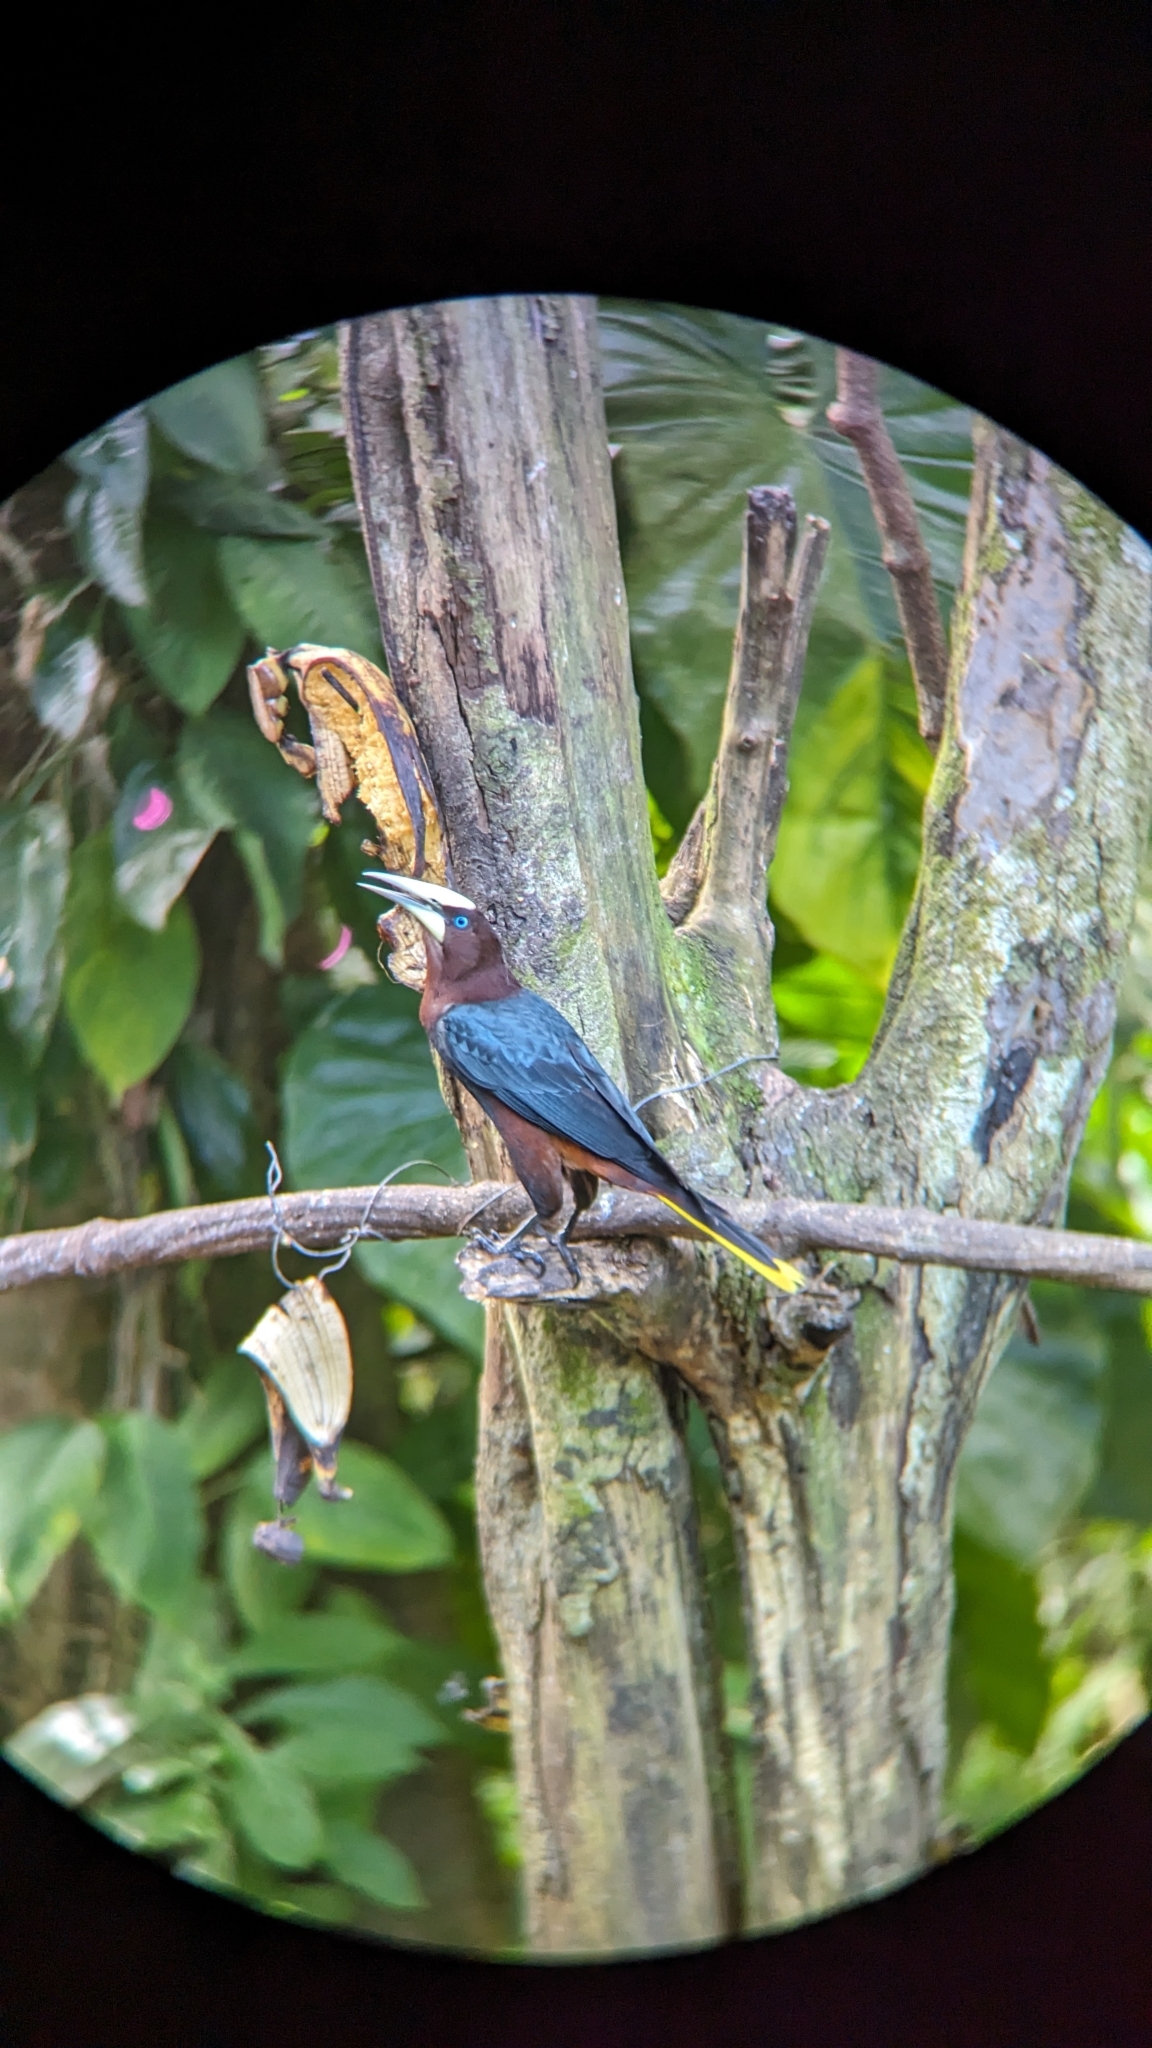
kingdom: Animalia
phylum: Chordata
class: Aves
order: Passeriformes
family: Icteridae
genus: Psarocolius
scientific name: Psarocolius wagleri
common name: Chestnut-headed oropendola
